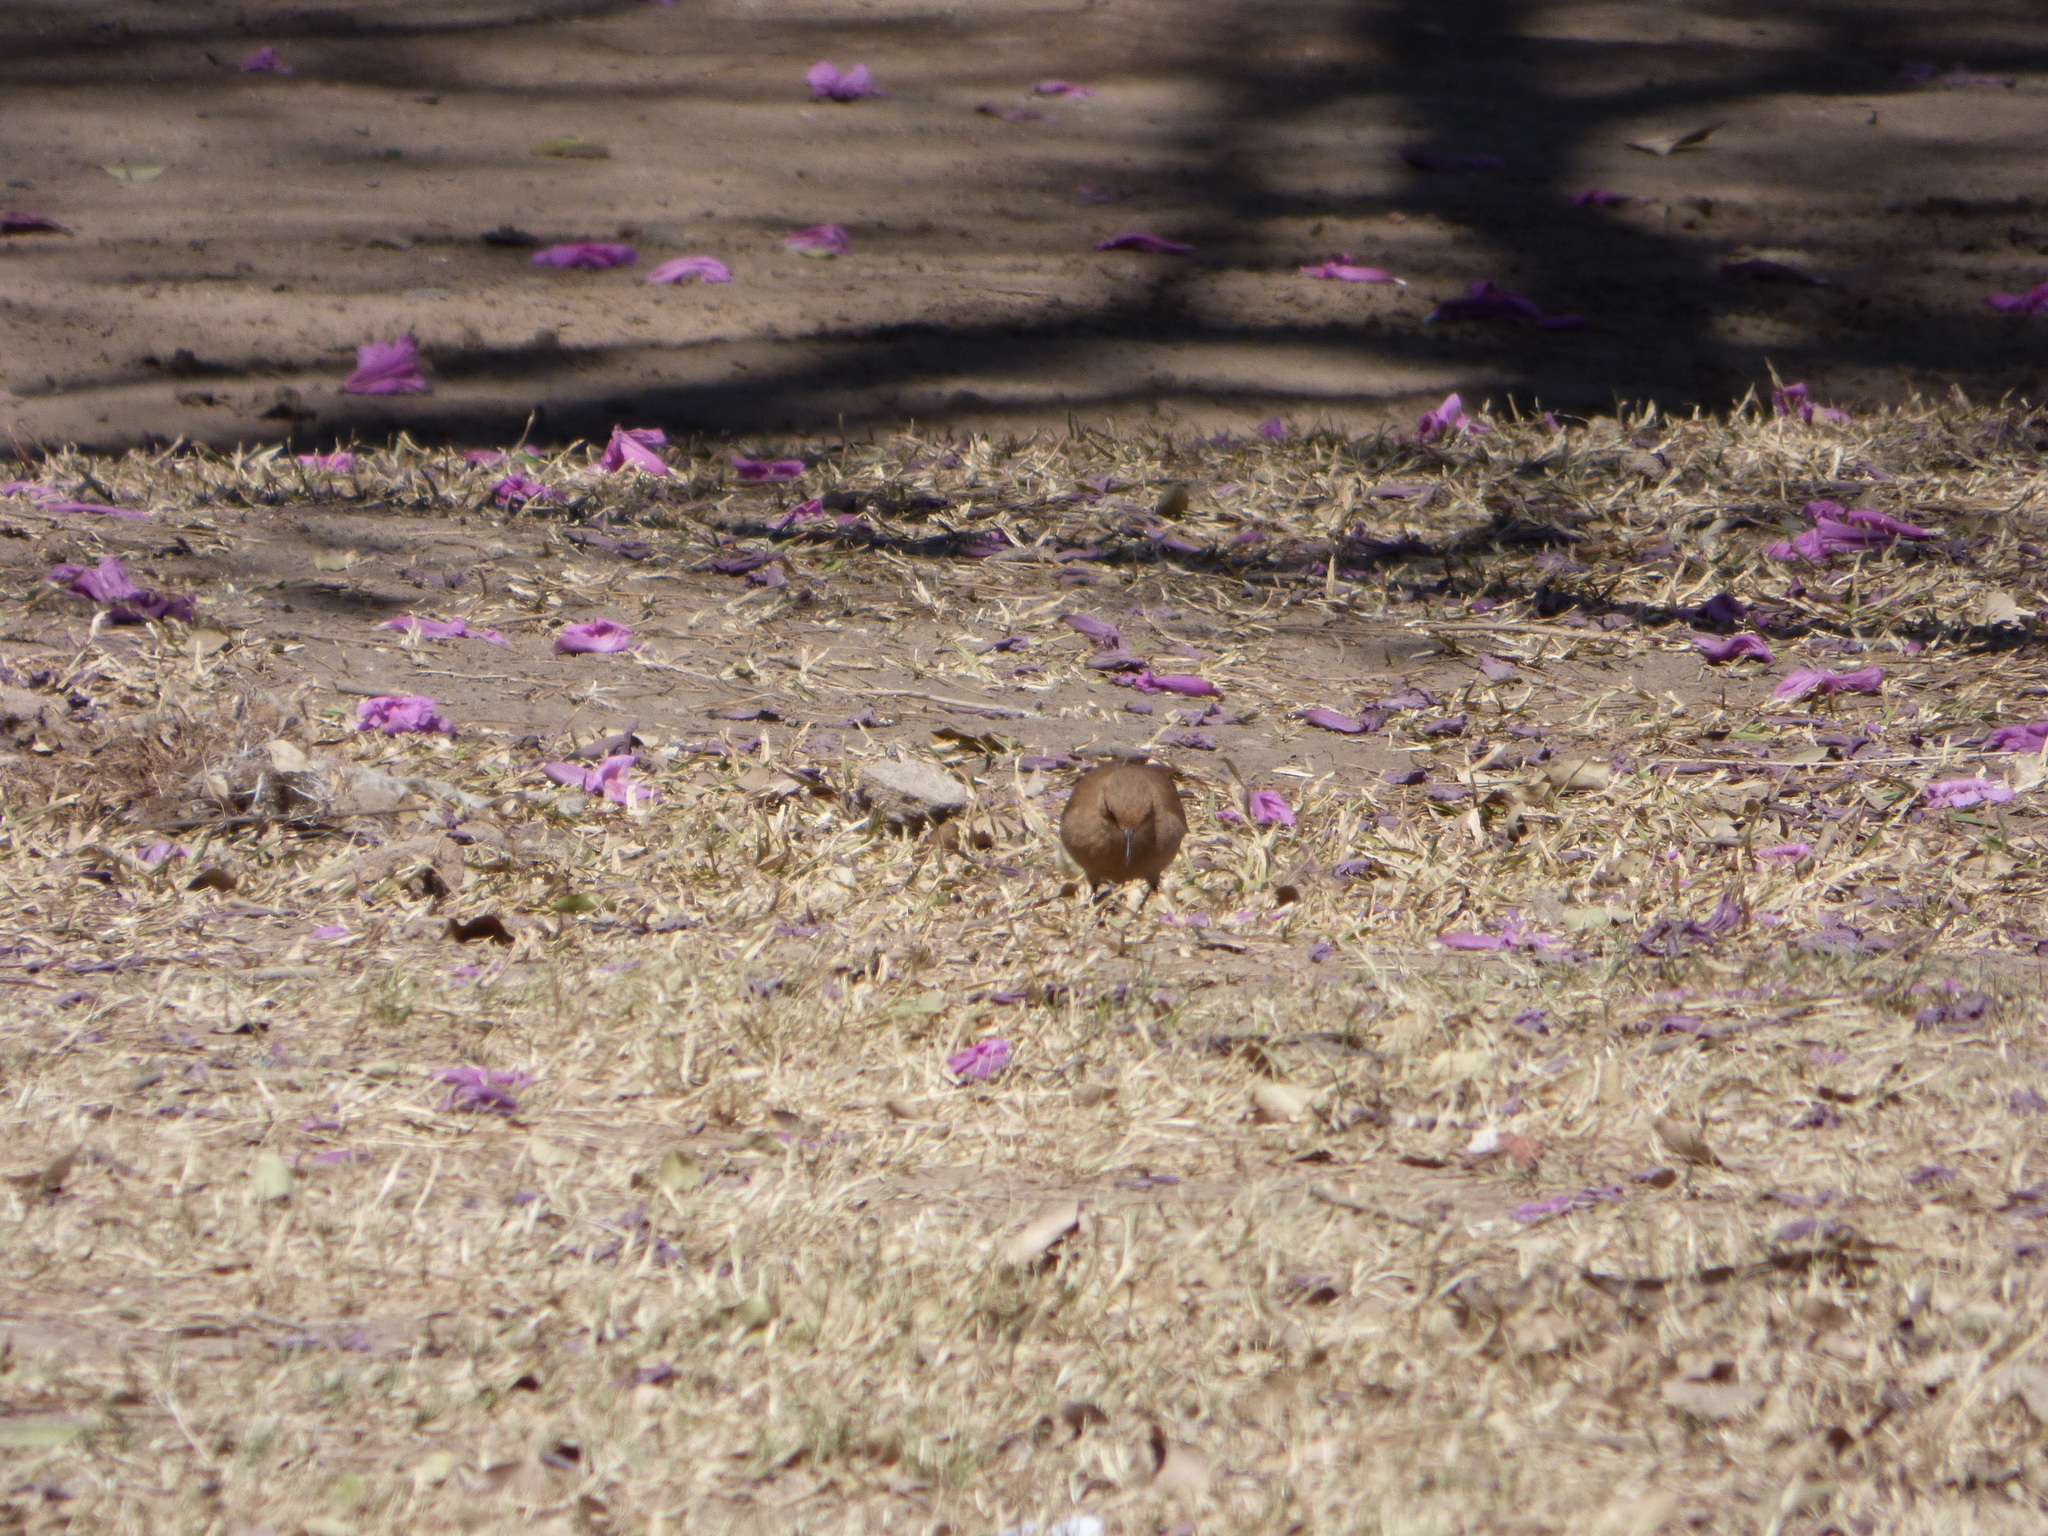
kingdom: Animalia
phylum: Chordata
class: Aves
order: Passeriformes
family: Furnariidae
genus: Furnarius
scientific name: Furnarius rufus
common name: Rufous hornero
